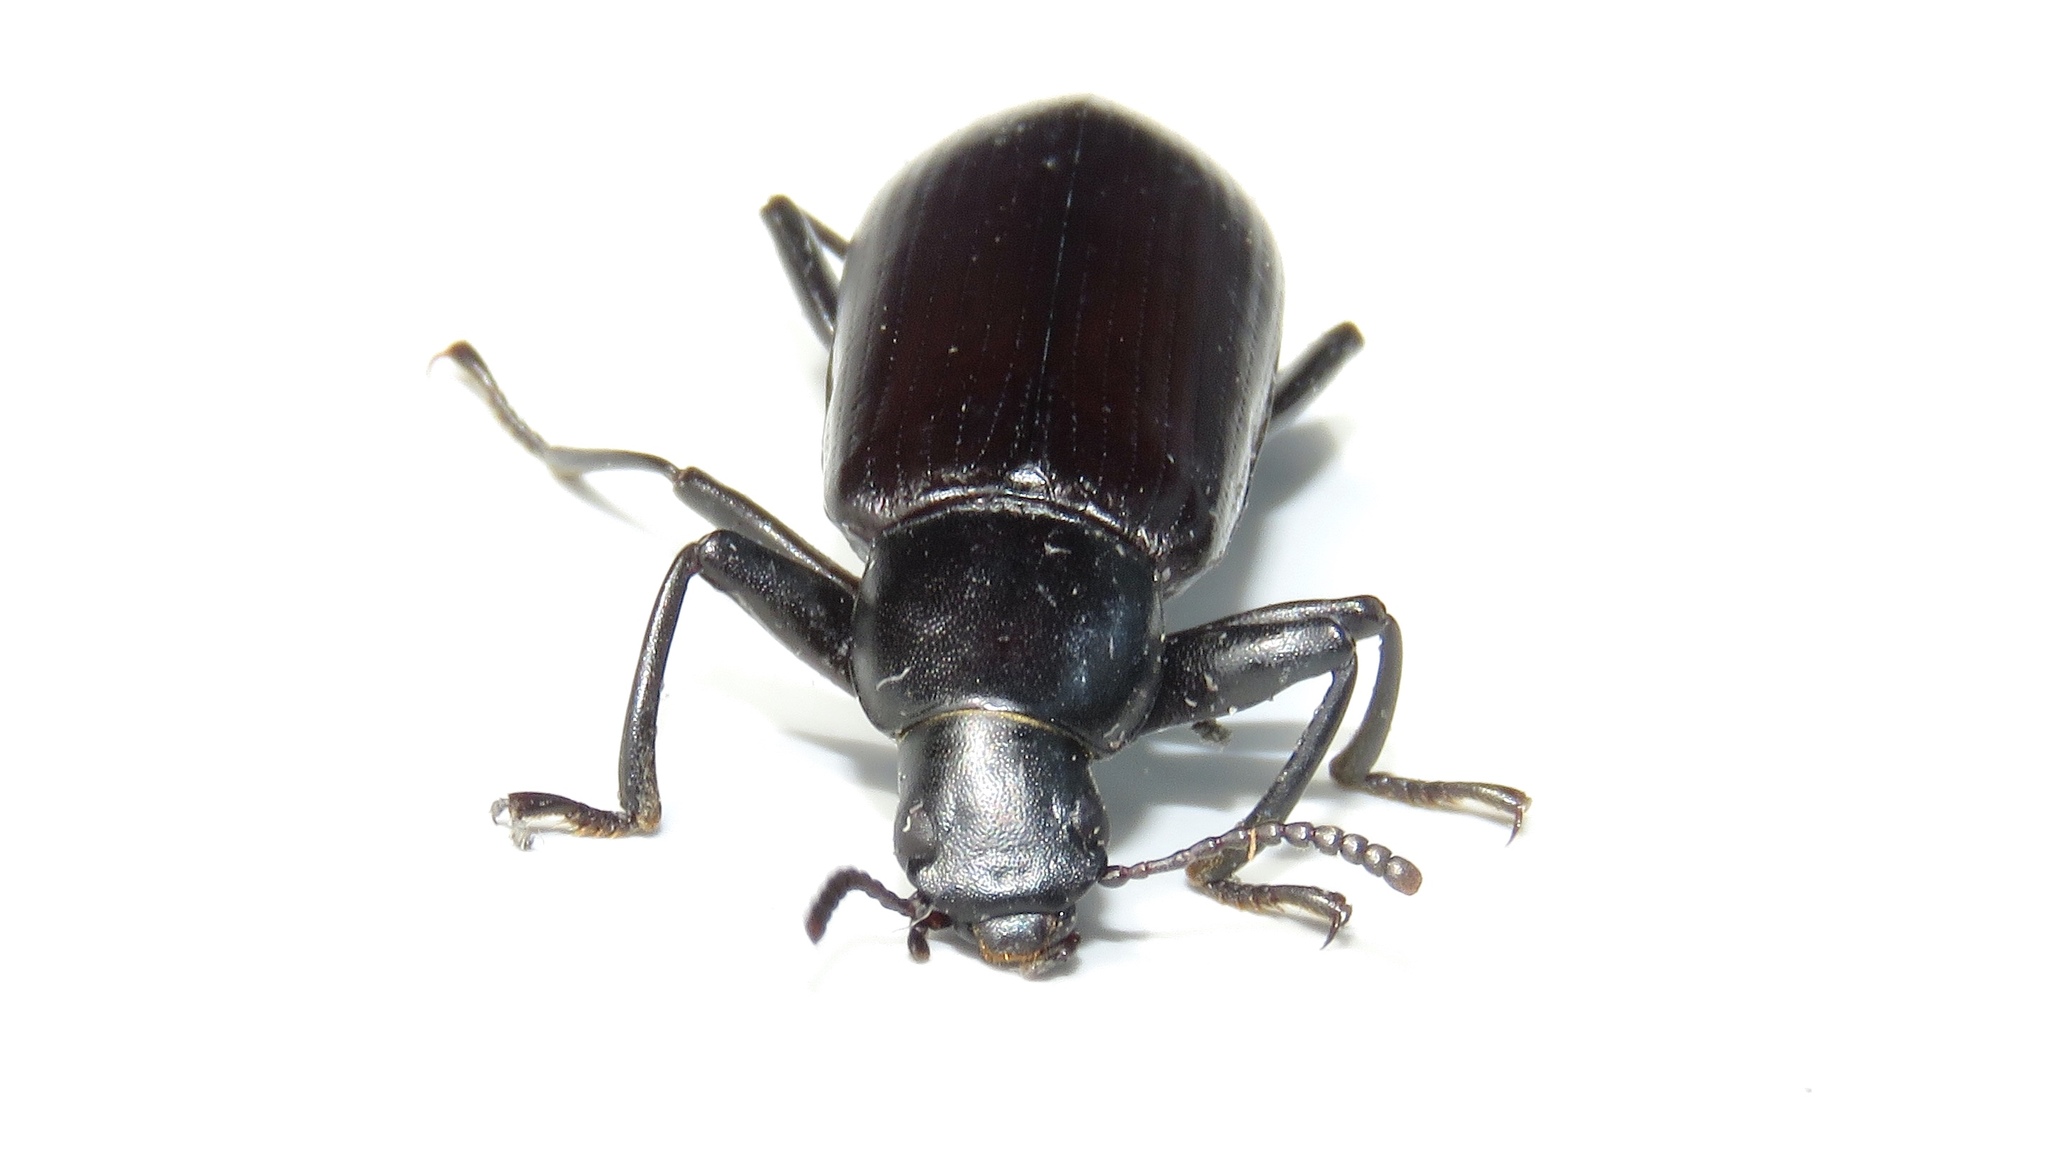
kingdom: Animalia
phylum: Arthropoda
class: Insecta
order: Coleoptera
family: Tenebrionidae
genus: Alobates
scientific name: Alobates pensylvanicus
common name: False mealworm beetle
